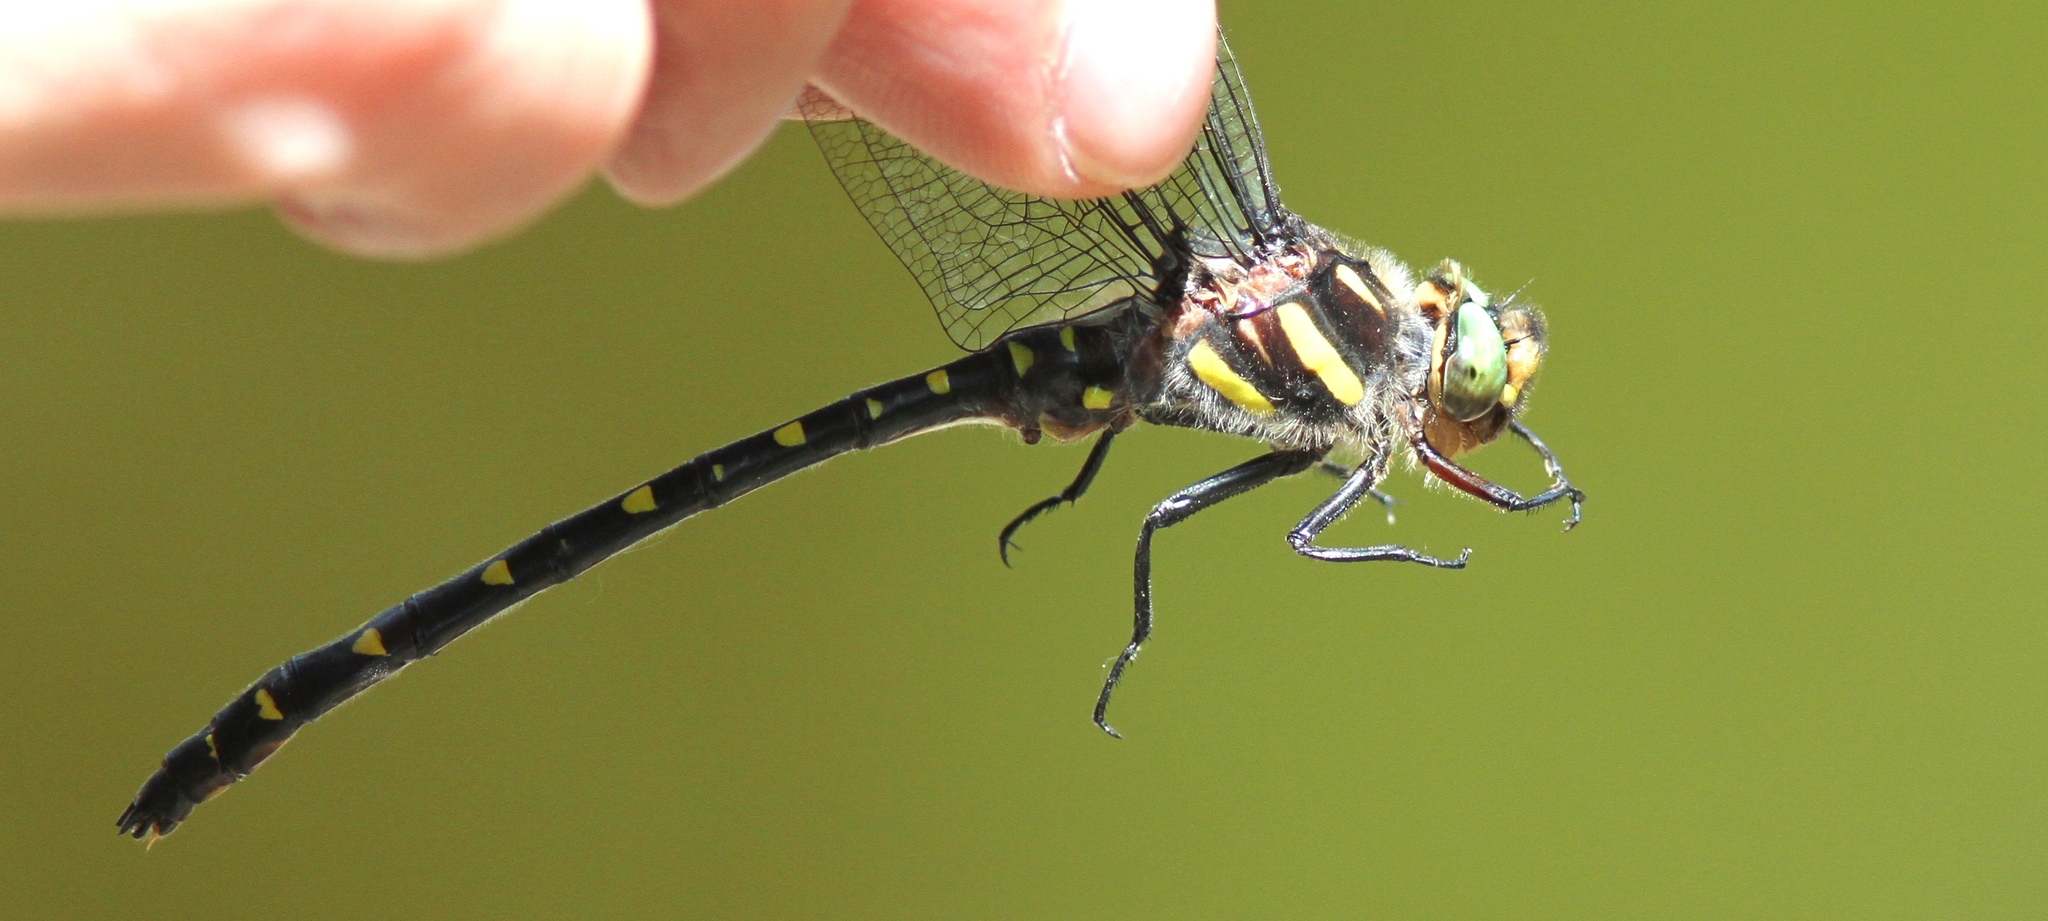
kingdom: Animalia
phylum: Arthropoda
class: Insecta
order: Odonata
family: Cordulegastridae
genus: Cordulegaster
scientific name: Cordulegaster maculata
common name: Twin-spotted spiketail
